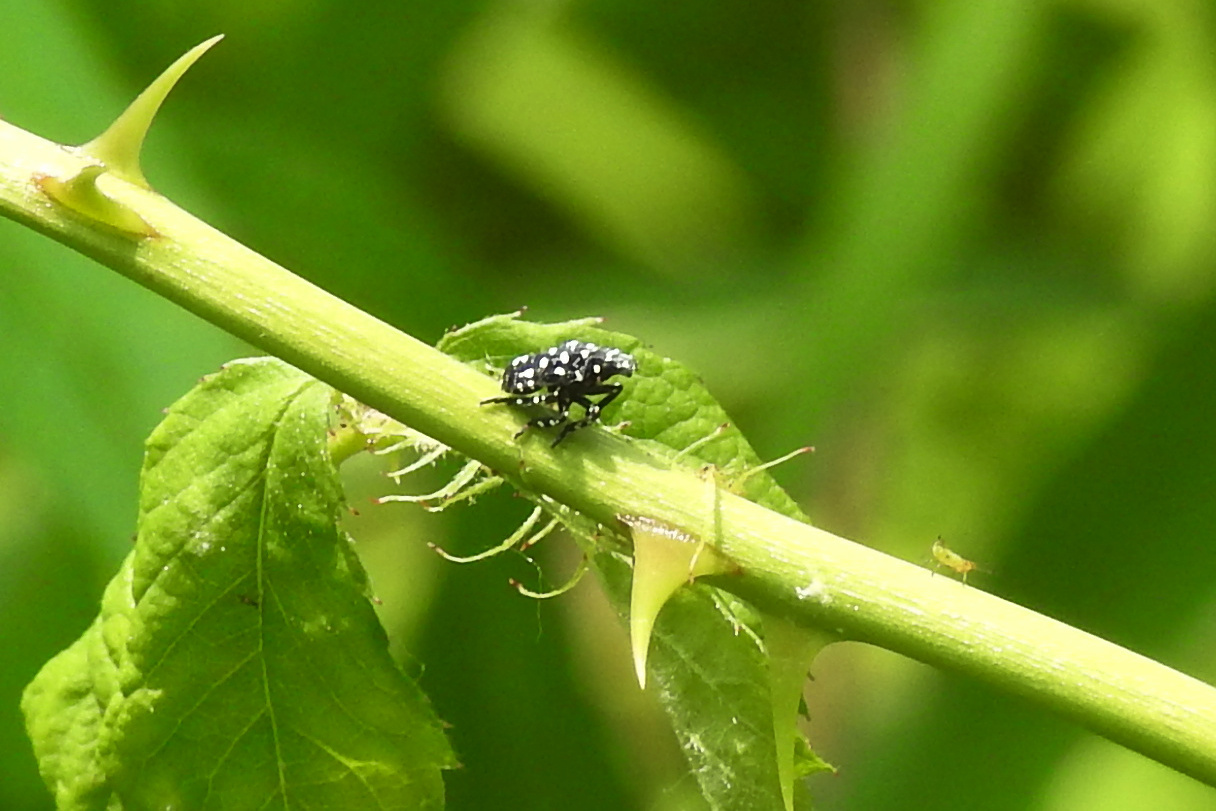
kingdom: Animalia
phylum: Arthropoda
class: Insecta
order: Hemiptera
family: Fulgoridae
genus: Lycorma
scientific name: Lycorma delicatula
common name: Spotted lanternfly
